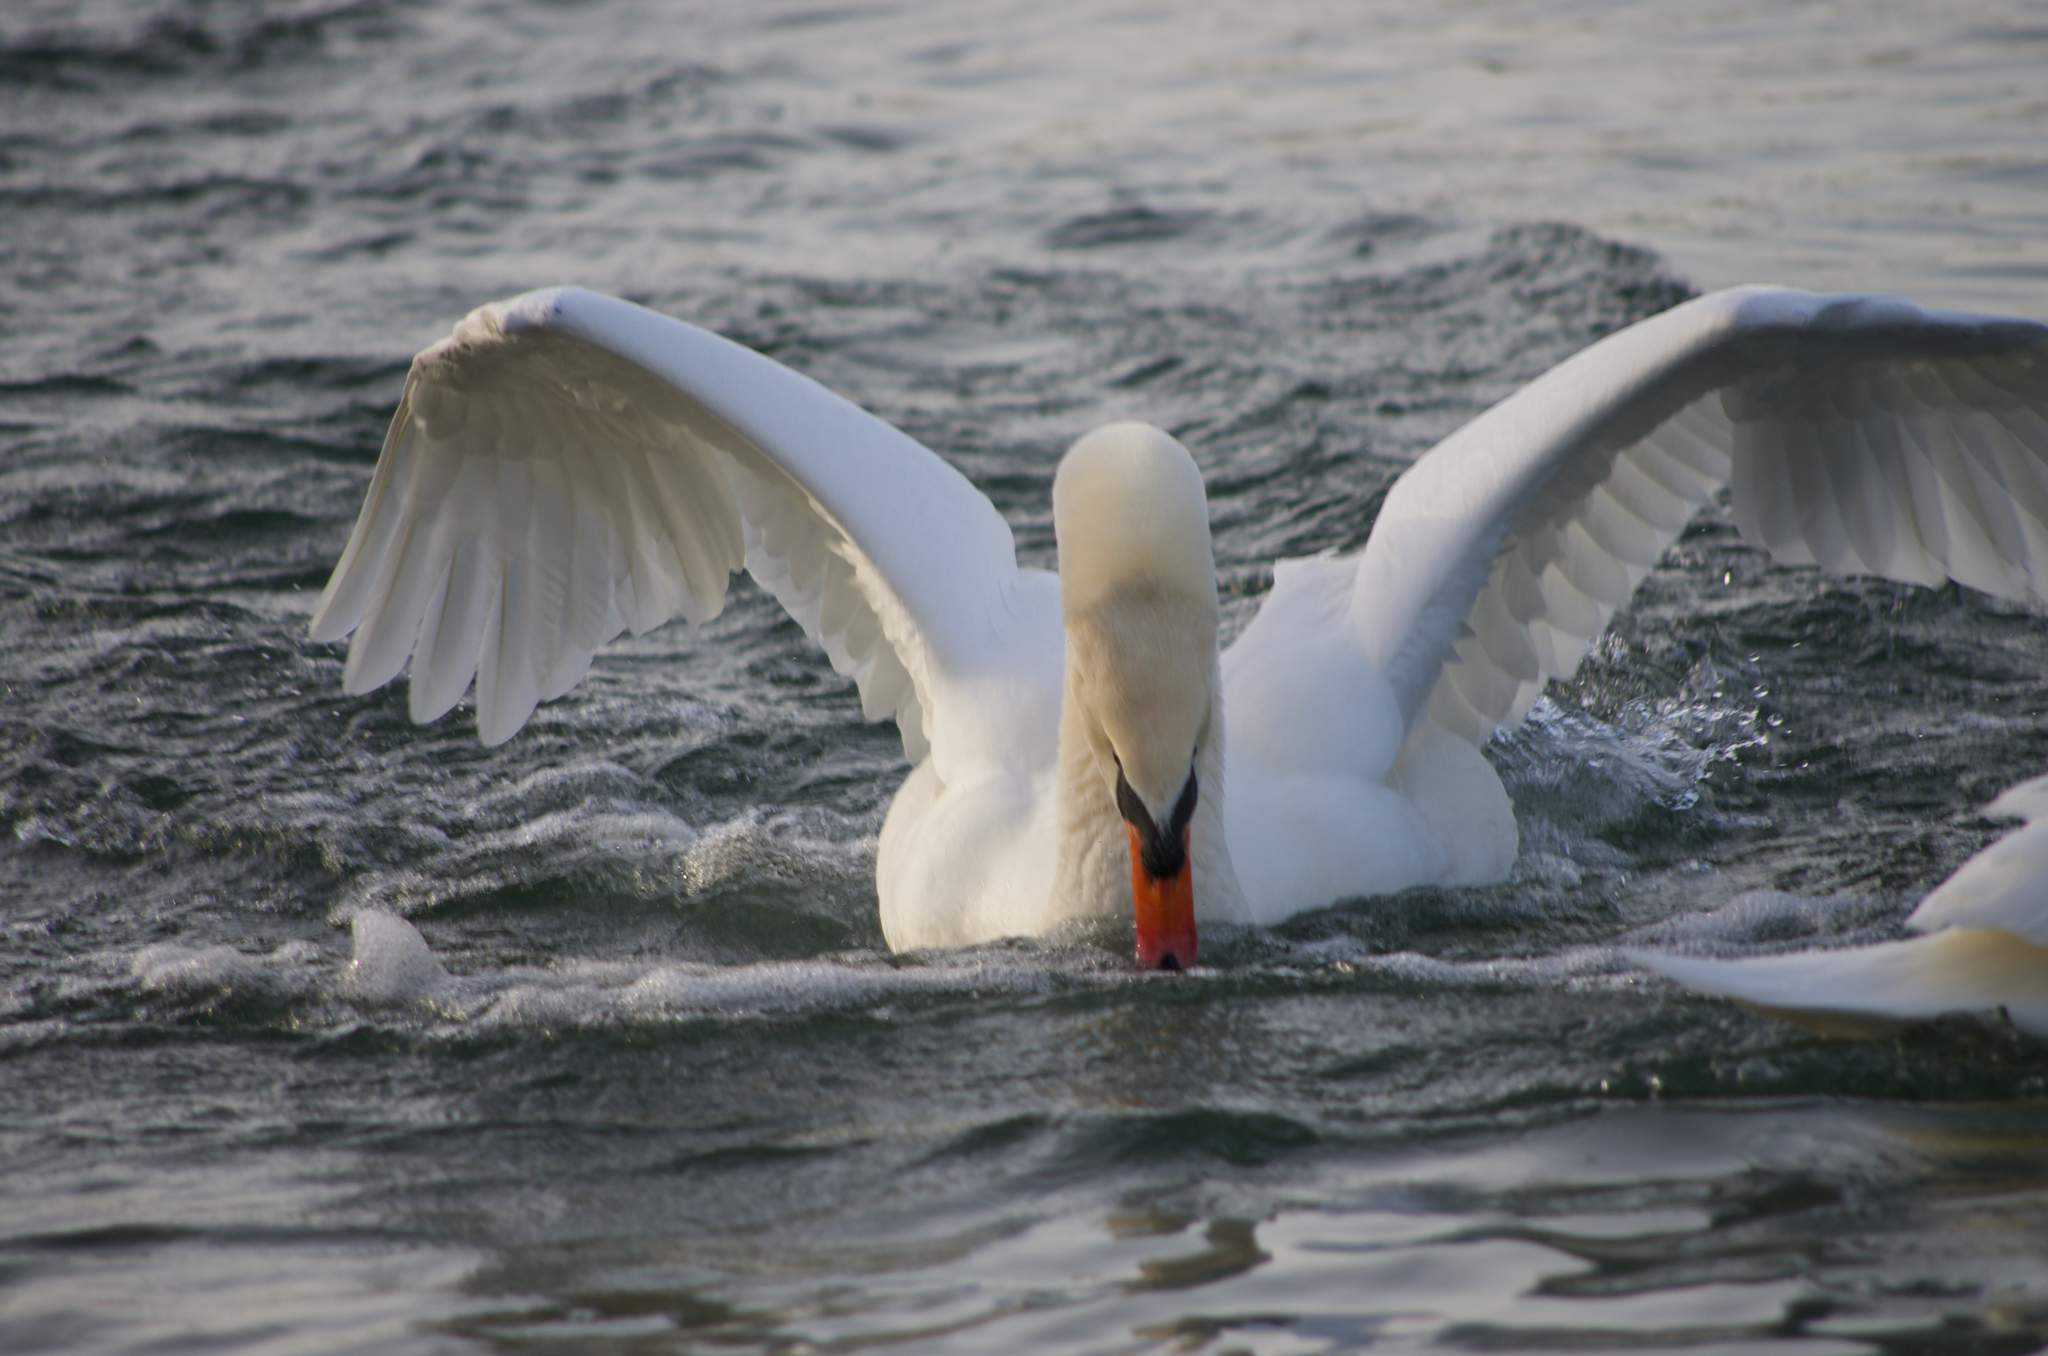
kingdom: Animalia
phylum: Chordata
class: Aves
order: Anseriformes
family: Anatidae
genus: Cygnus
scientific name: Cygnus olor
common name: Mute swan
